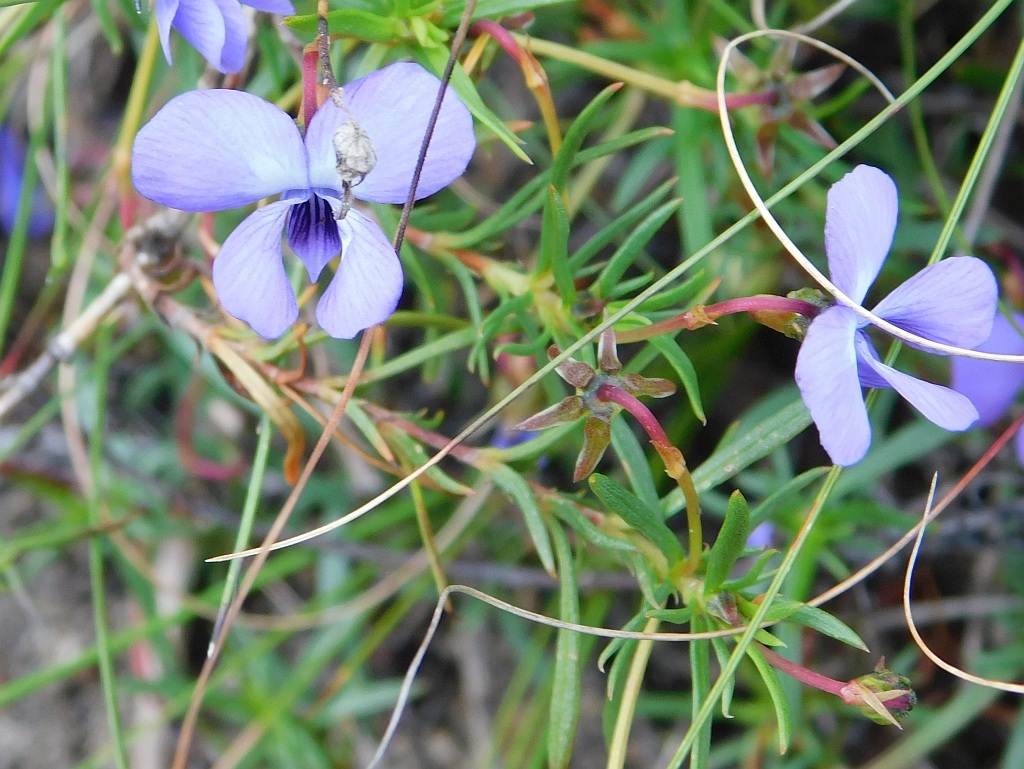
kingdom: Plantae
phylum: Tracheophyta
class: Magnoliopsida
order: Malpighiales
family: Violaceae
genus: Viola
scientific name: Viola decumbens
